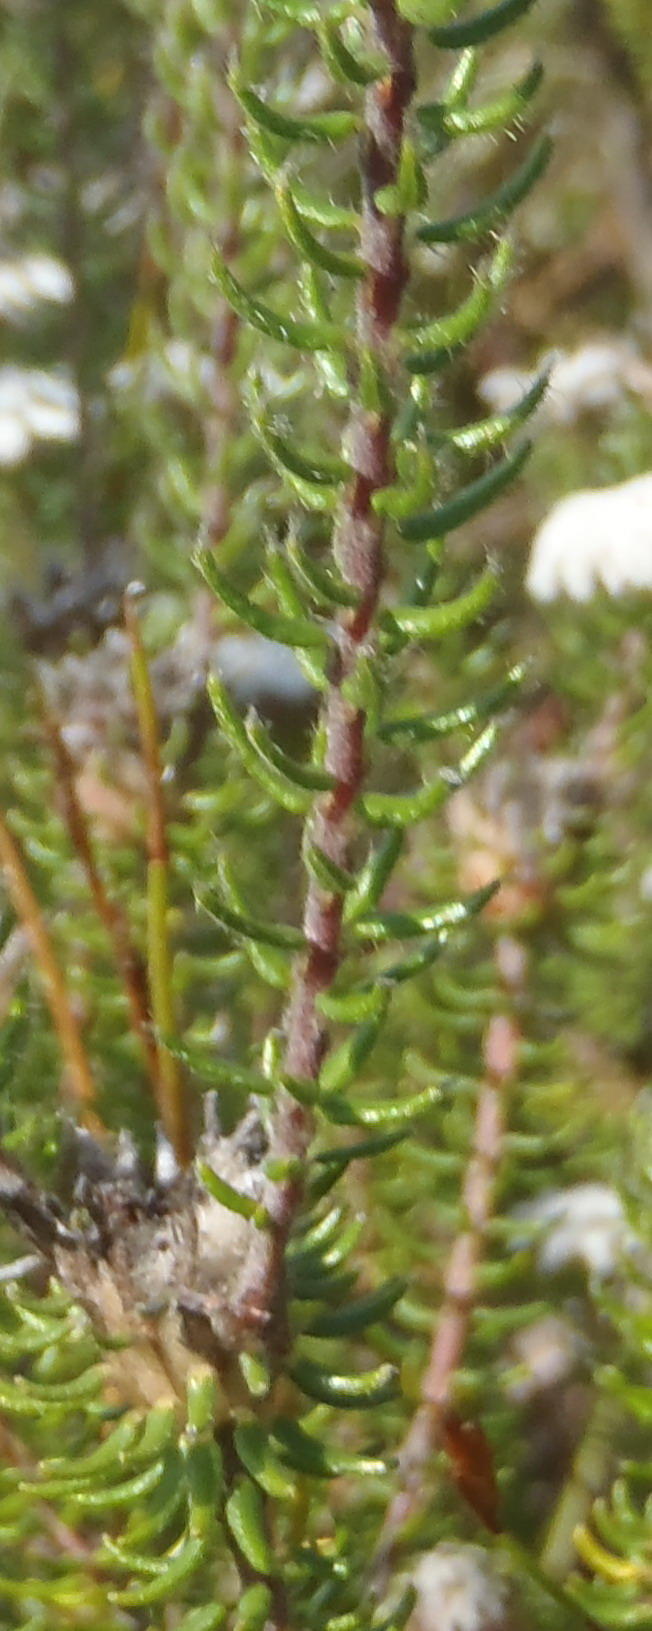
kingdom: Plantae
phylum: Tracheophyta
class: Magnoliopsida
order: Rosales
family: Rhamnaceae
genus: Phylica
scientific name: Phylica curvifolia
